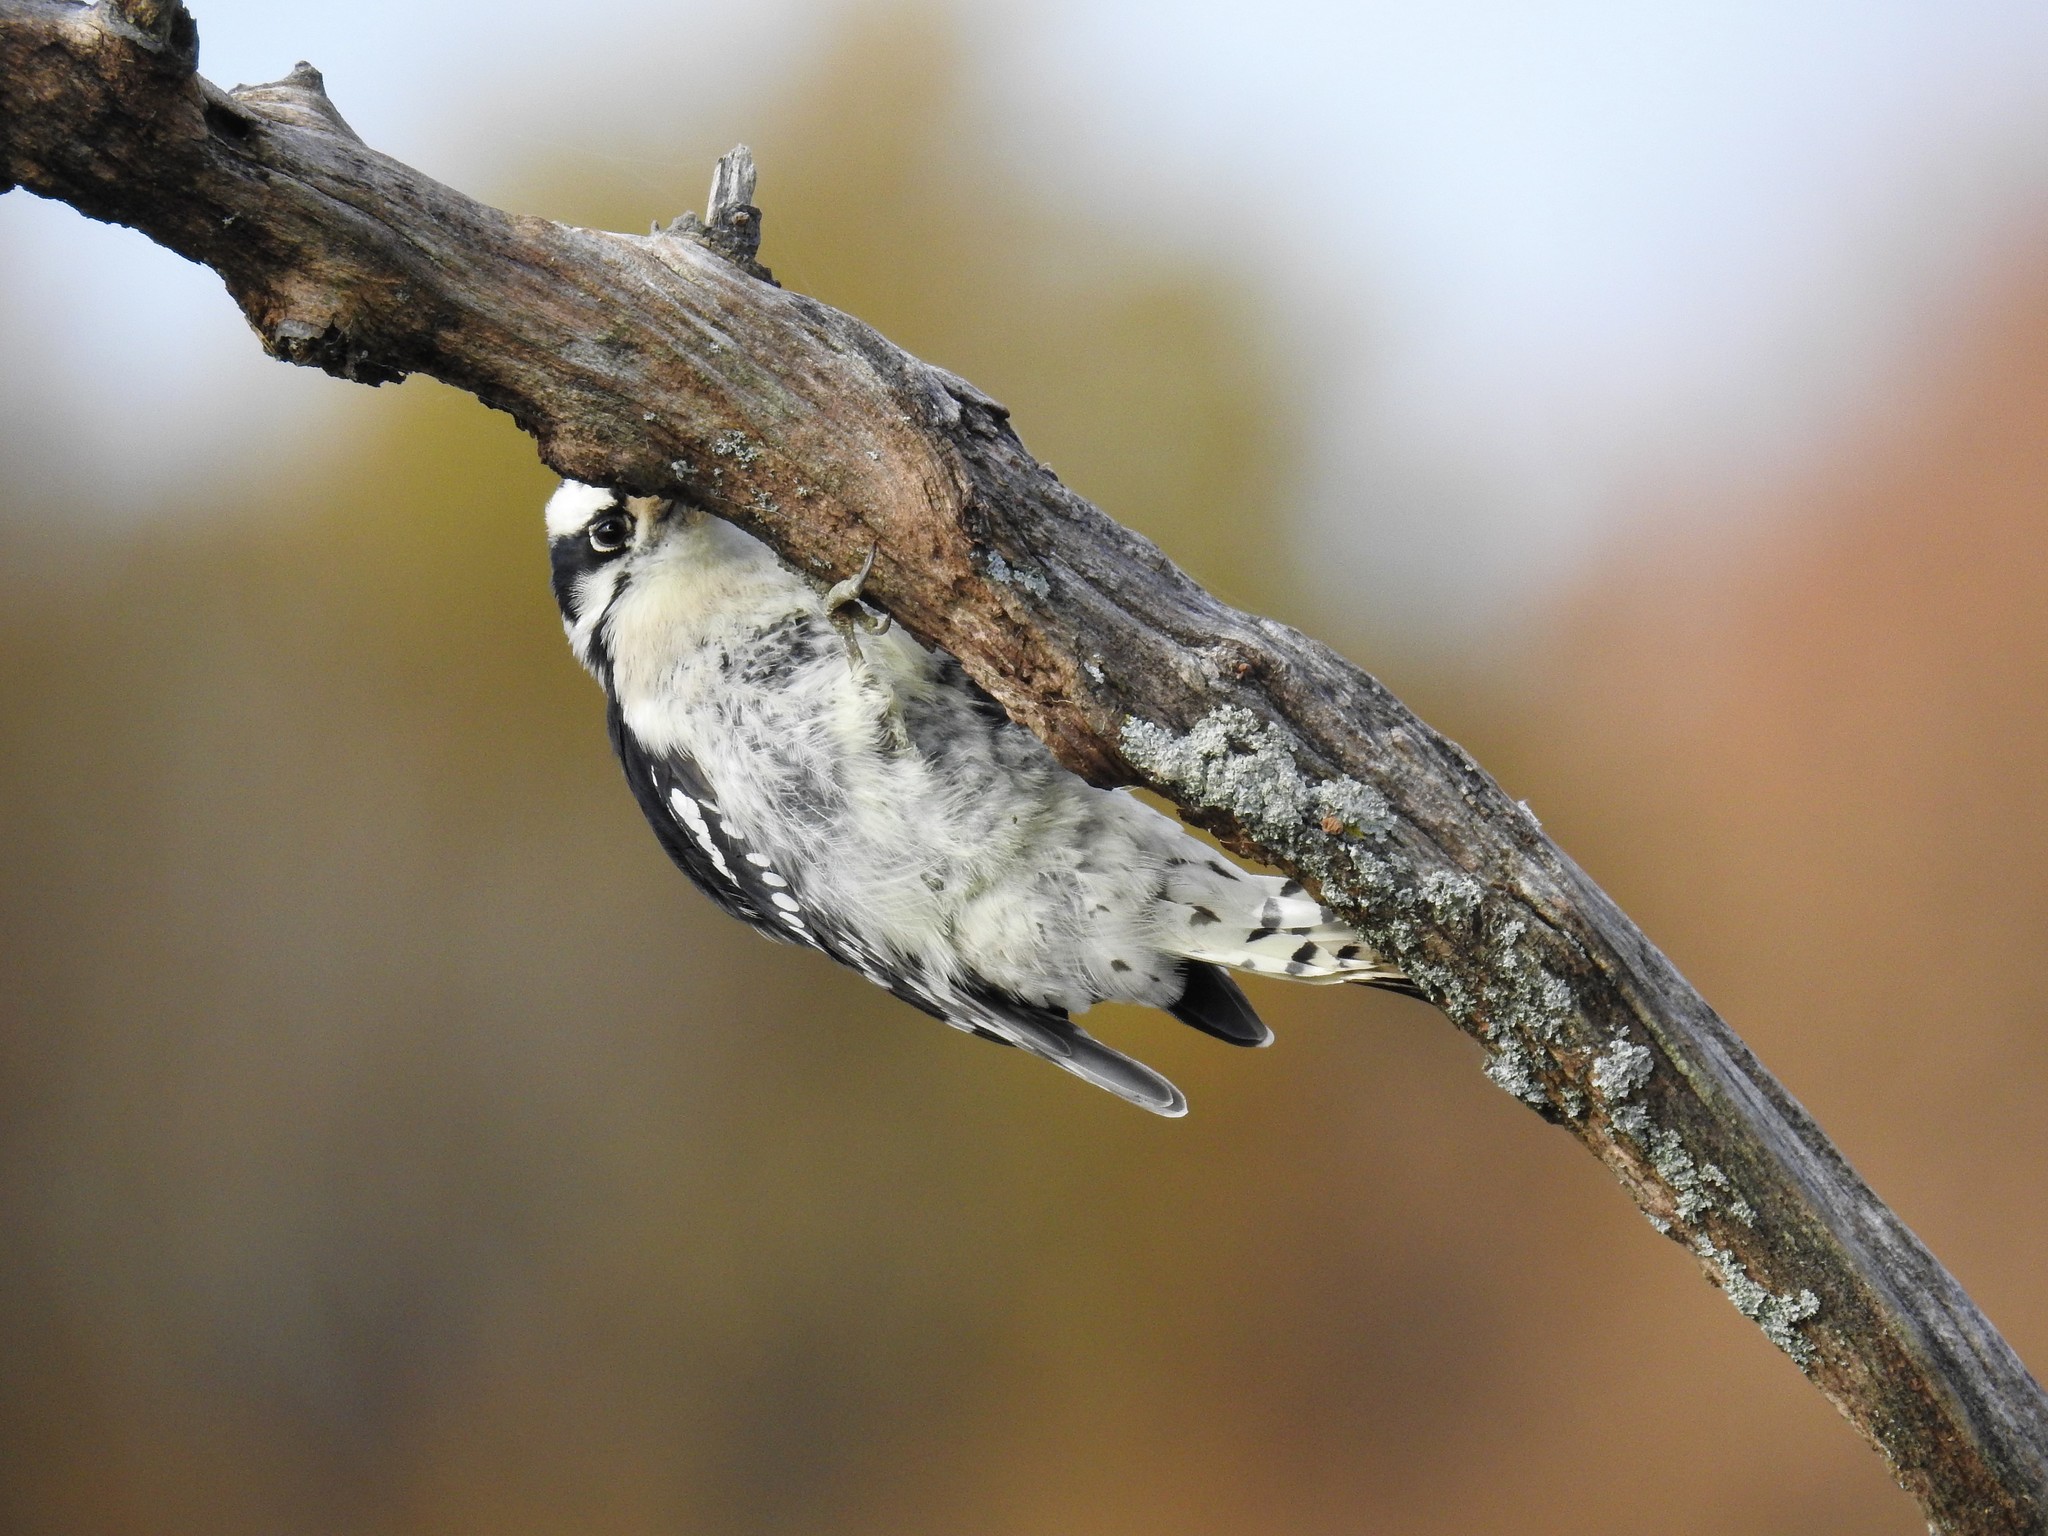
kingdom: Animalia
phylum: Chordata
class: Aves
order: Piciformes
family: Picidae
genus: Dryobates
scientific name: Dryobates pubescens
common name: Downy woodpecker
